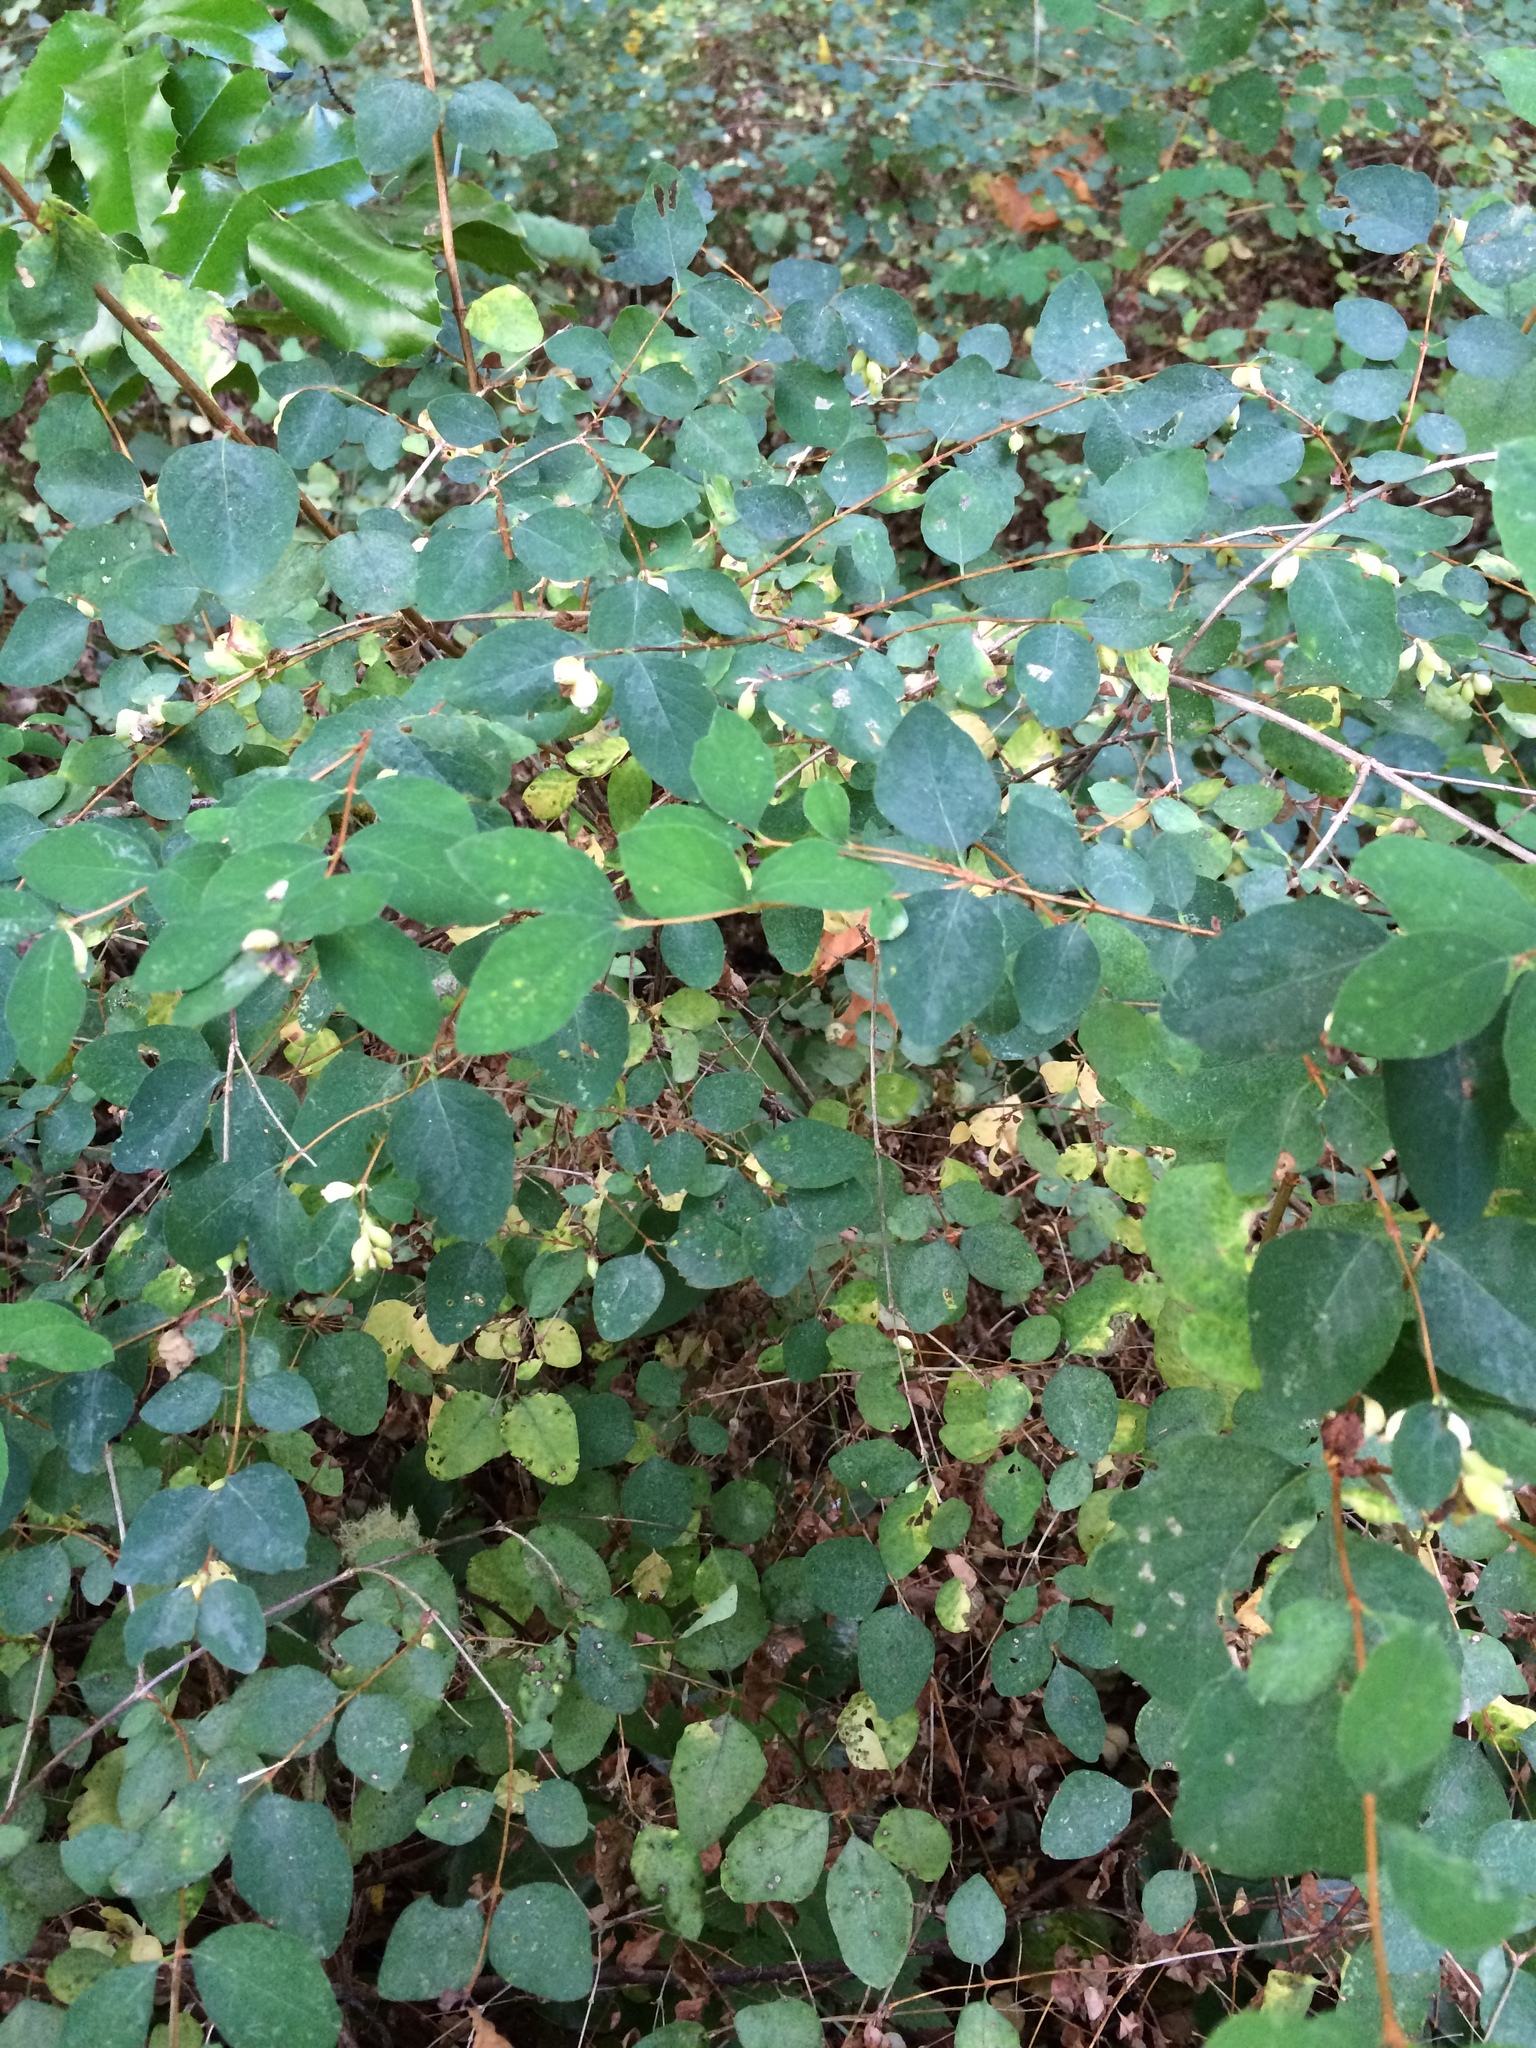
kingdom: Plantae
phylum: Tracheophyta
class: Magnoliopsida
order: Dipsacales
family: Caprifoliaceae
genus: Symphoricarpos
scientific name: Symphoricarpos albus
